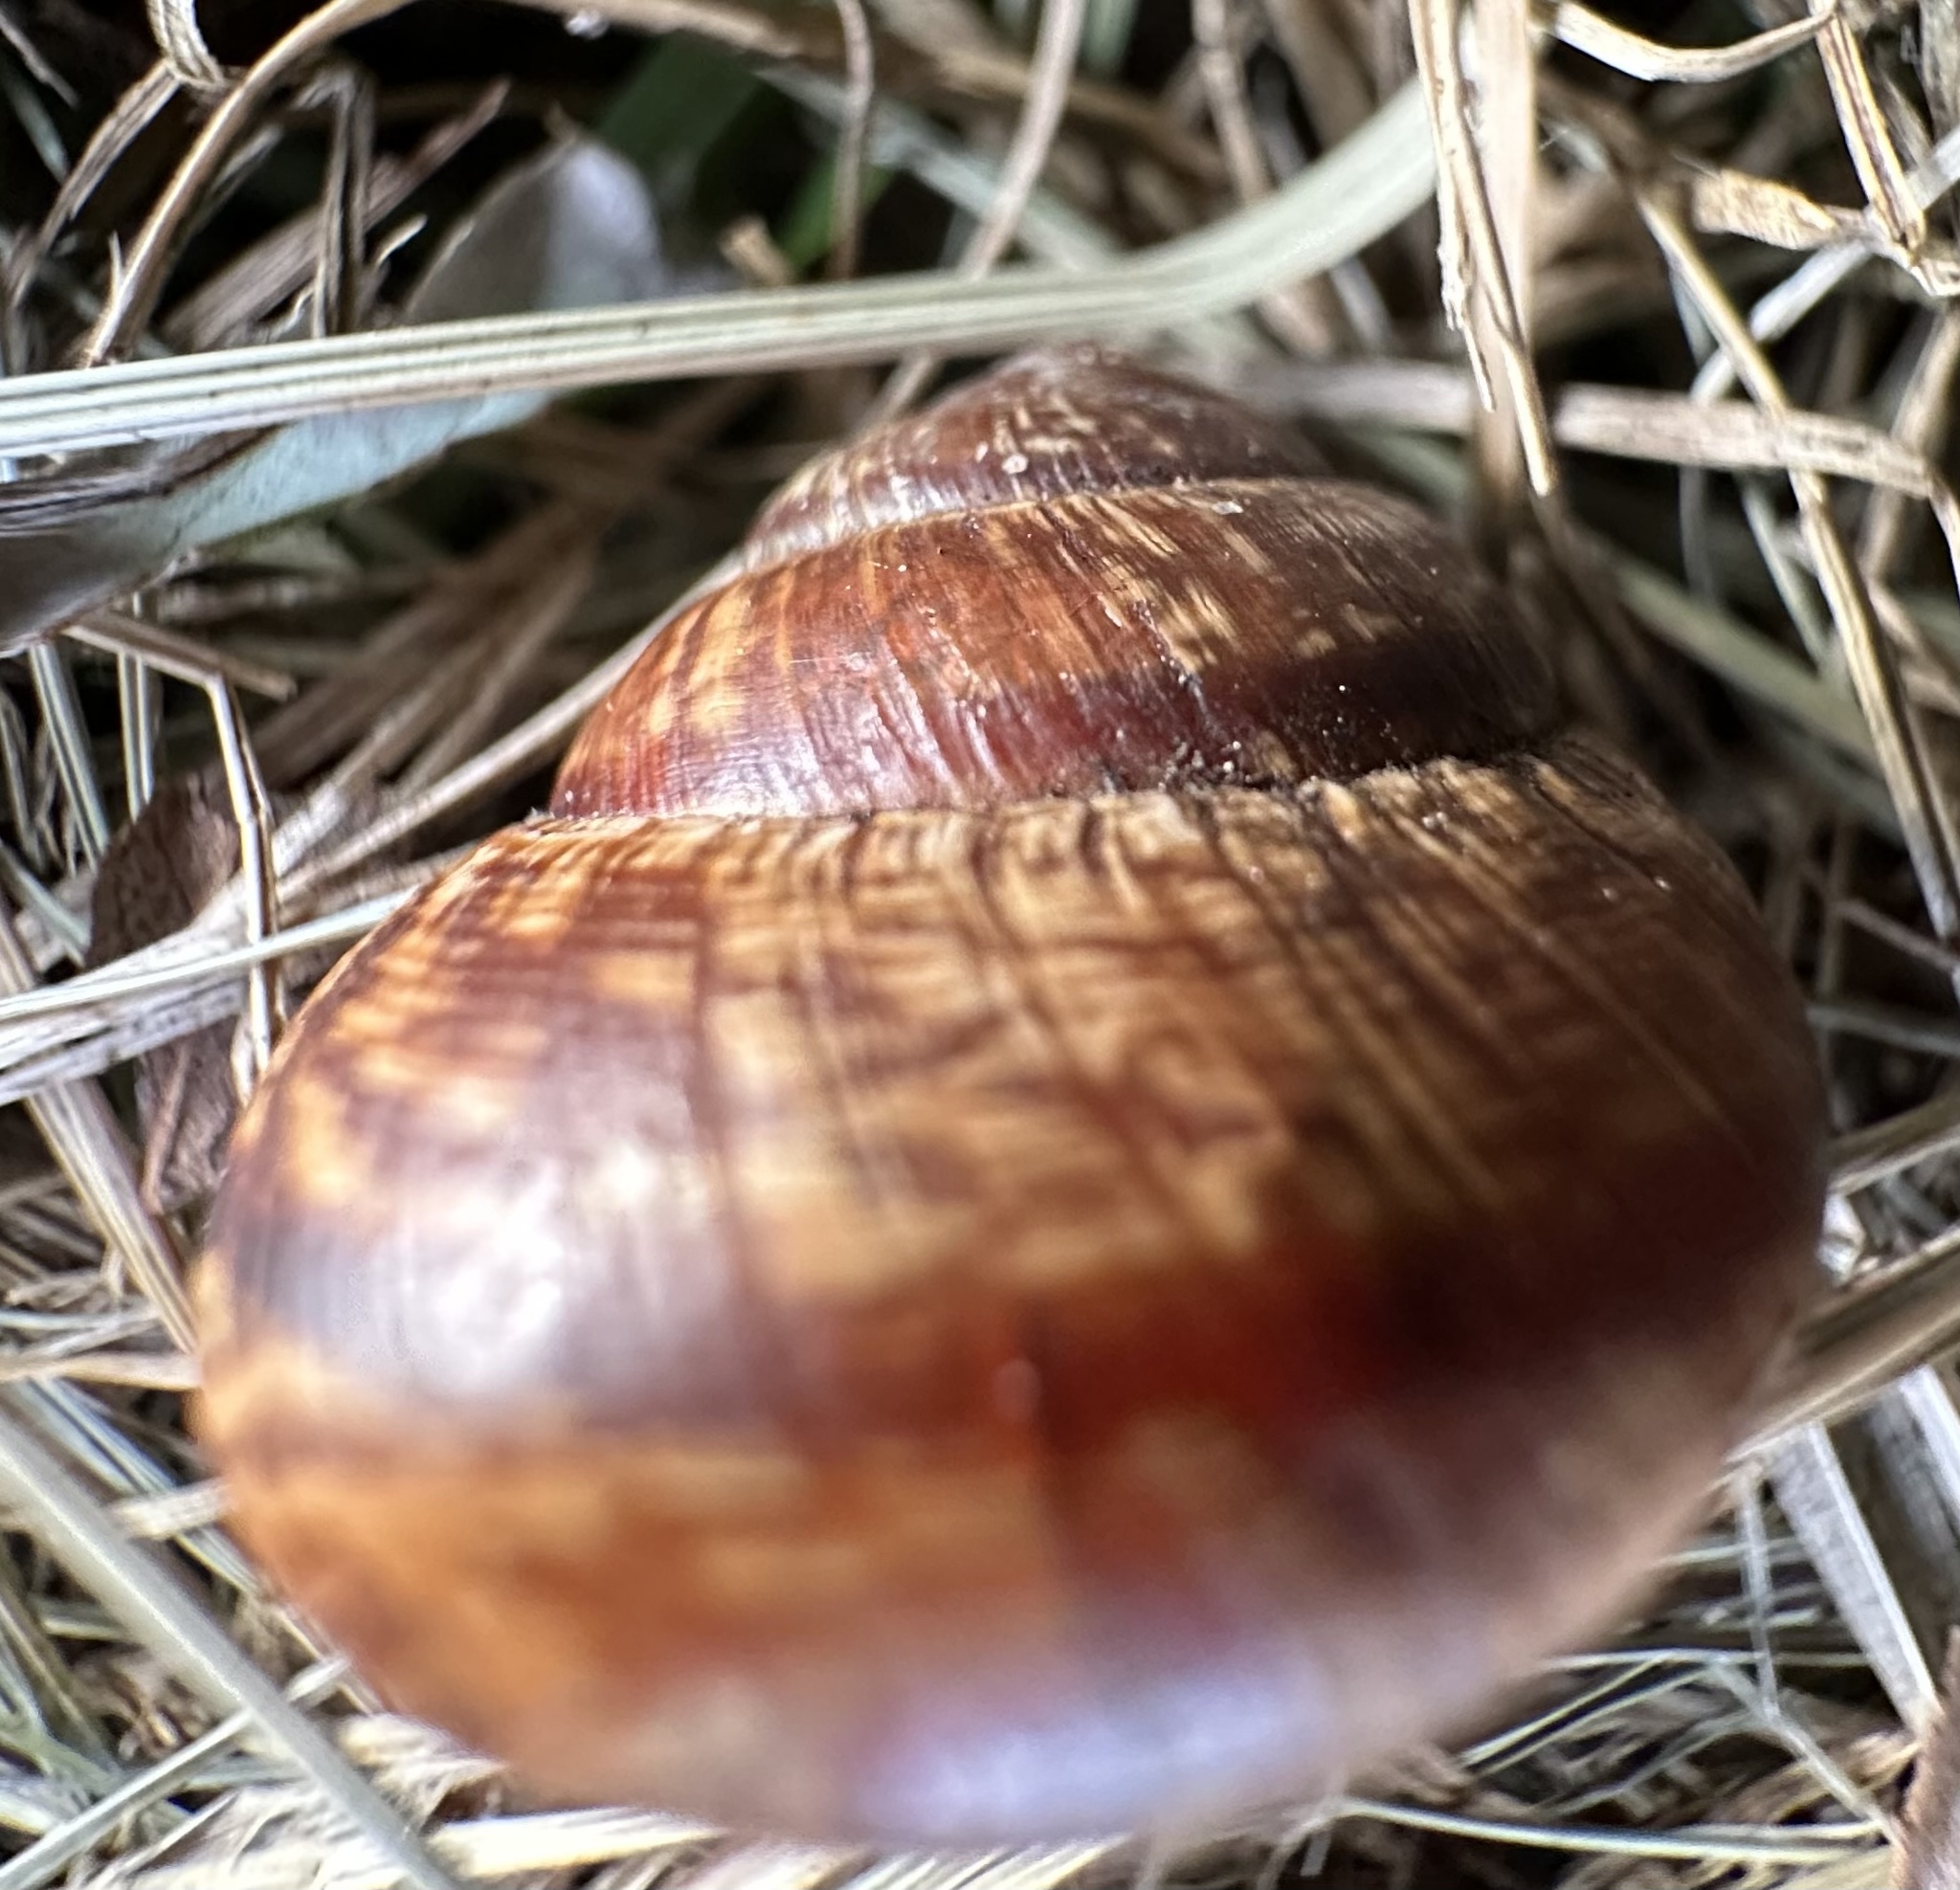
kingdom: Animalia
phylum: Mollusca
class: Gastropoda
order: Stylommatophora
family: Helicidae
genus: Arianta
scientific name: Arianta arbustorum
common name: Copse snail
